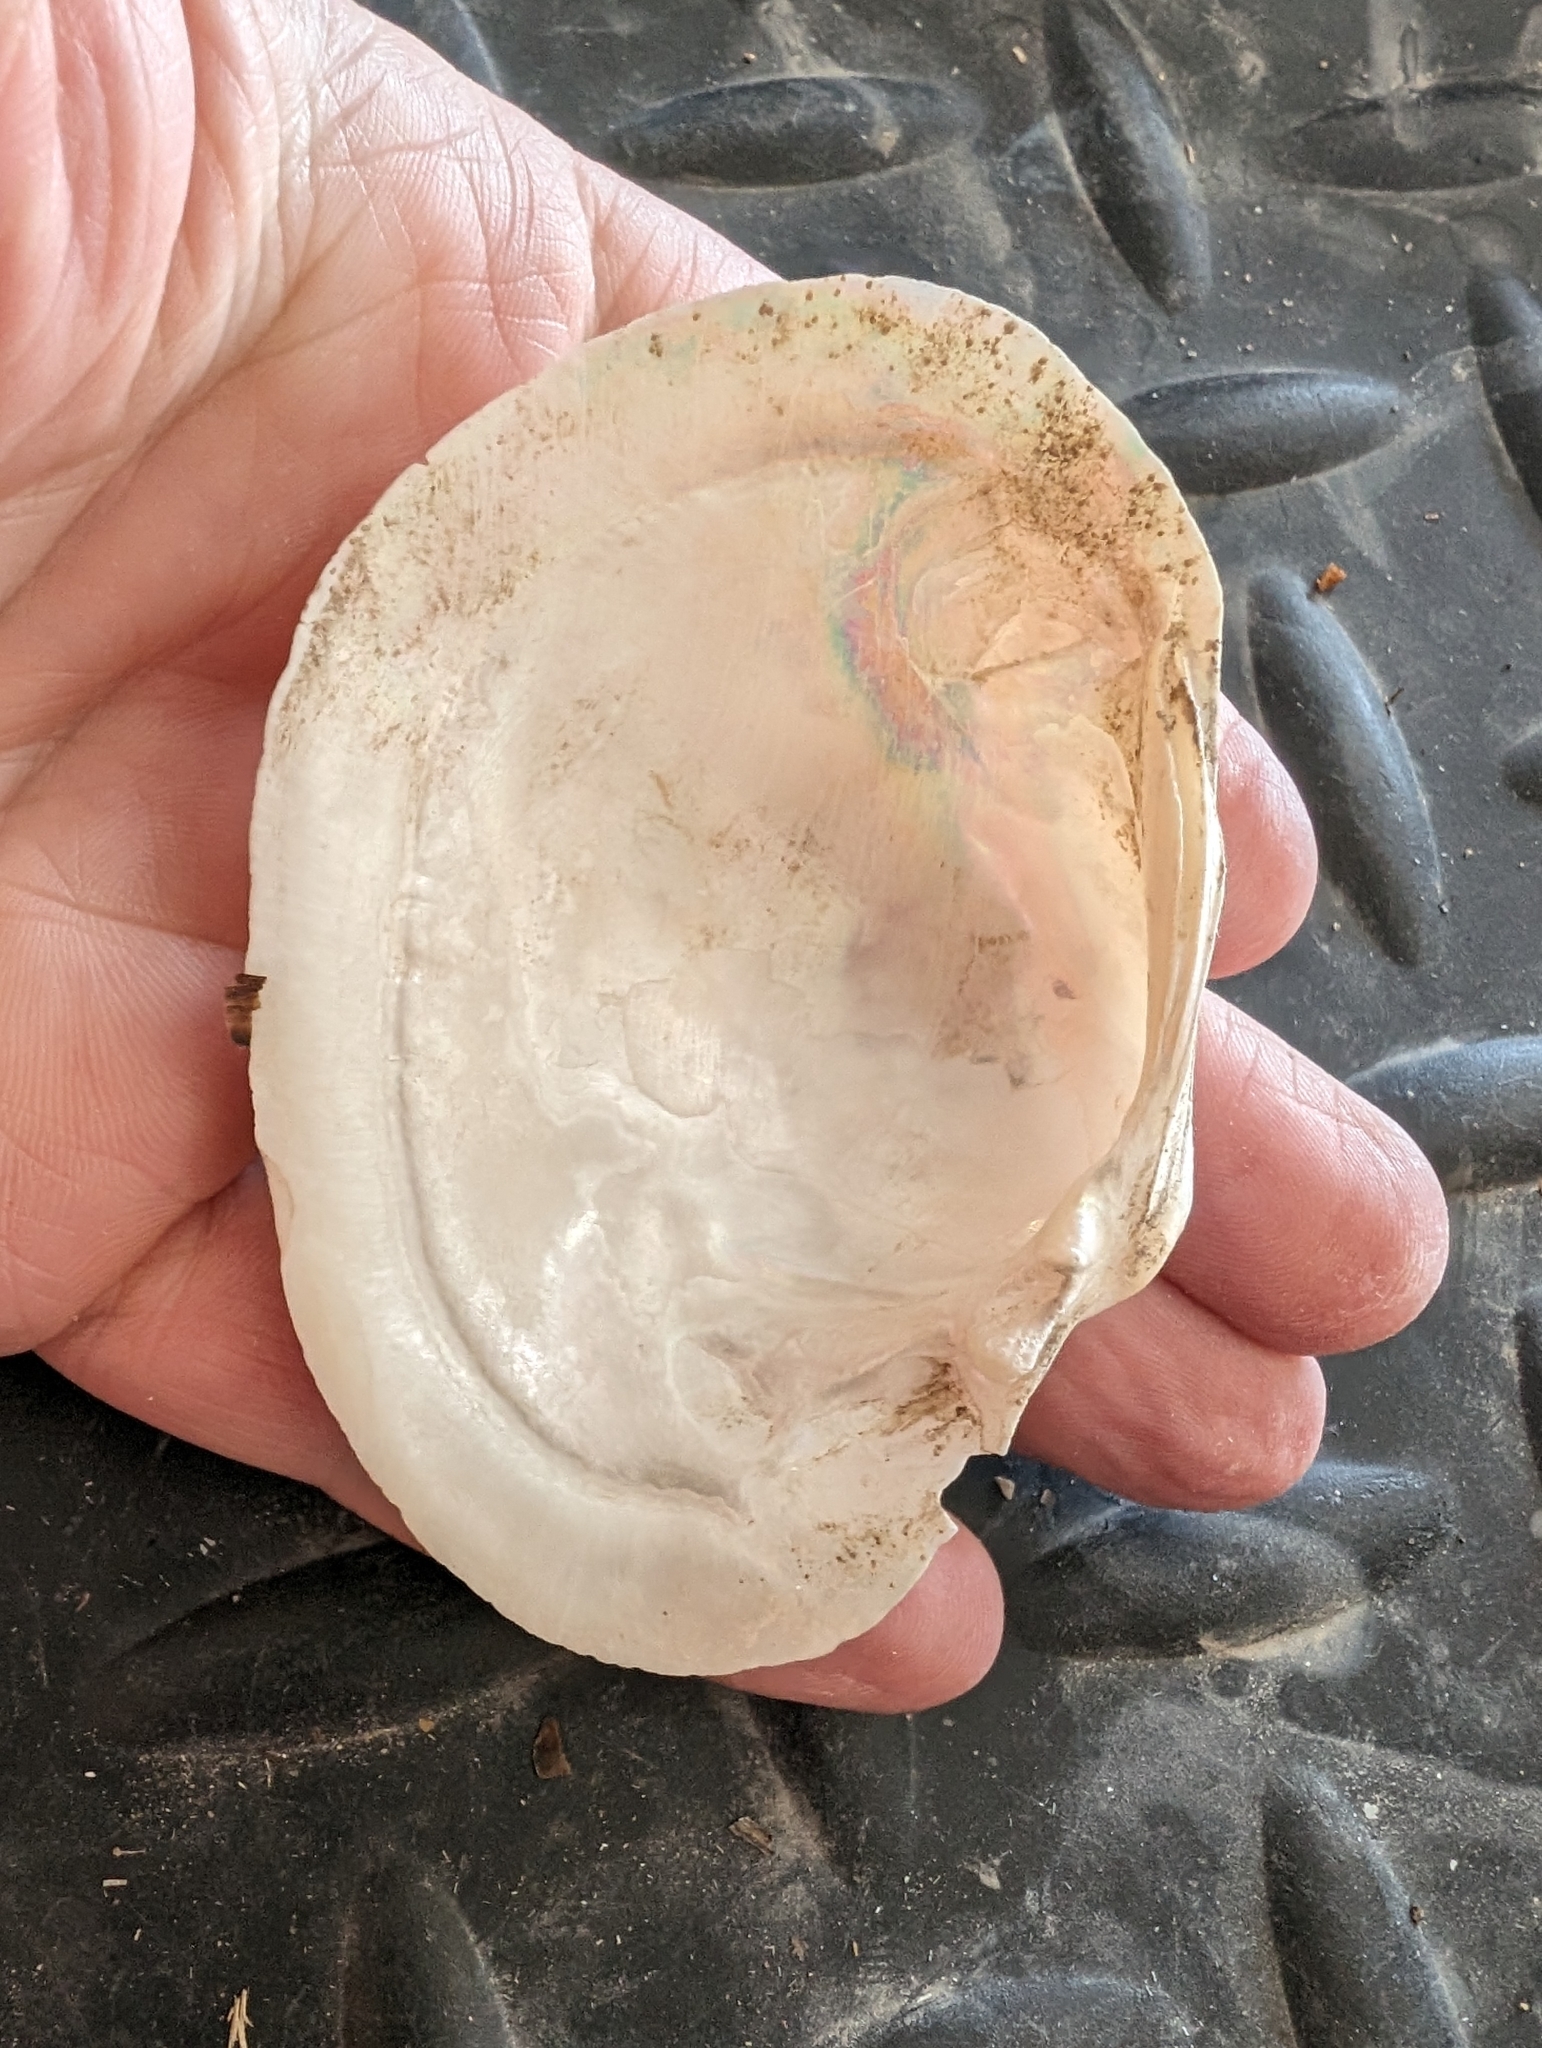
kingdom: Animalia
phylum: Mollusca
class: Bivalvia
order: Unionida
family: Unionidae
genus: Lampsilis
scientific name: Lampsilis cardium
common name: Plain pocketbook
